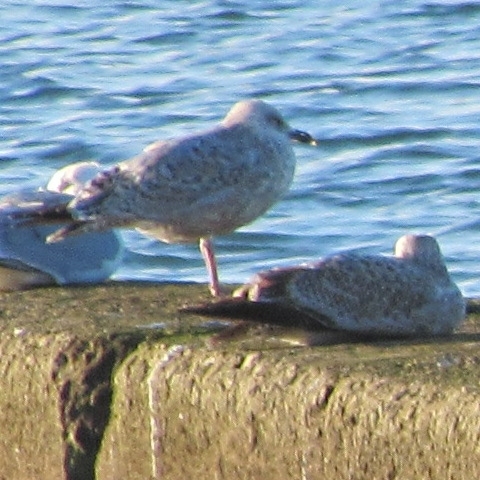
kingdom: Animalia
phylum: Chordata
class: Aves
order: Charadriiformes
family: Laridae
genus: Larus
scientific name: Larus argentatus
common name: Herring gull
